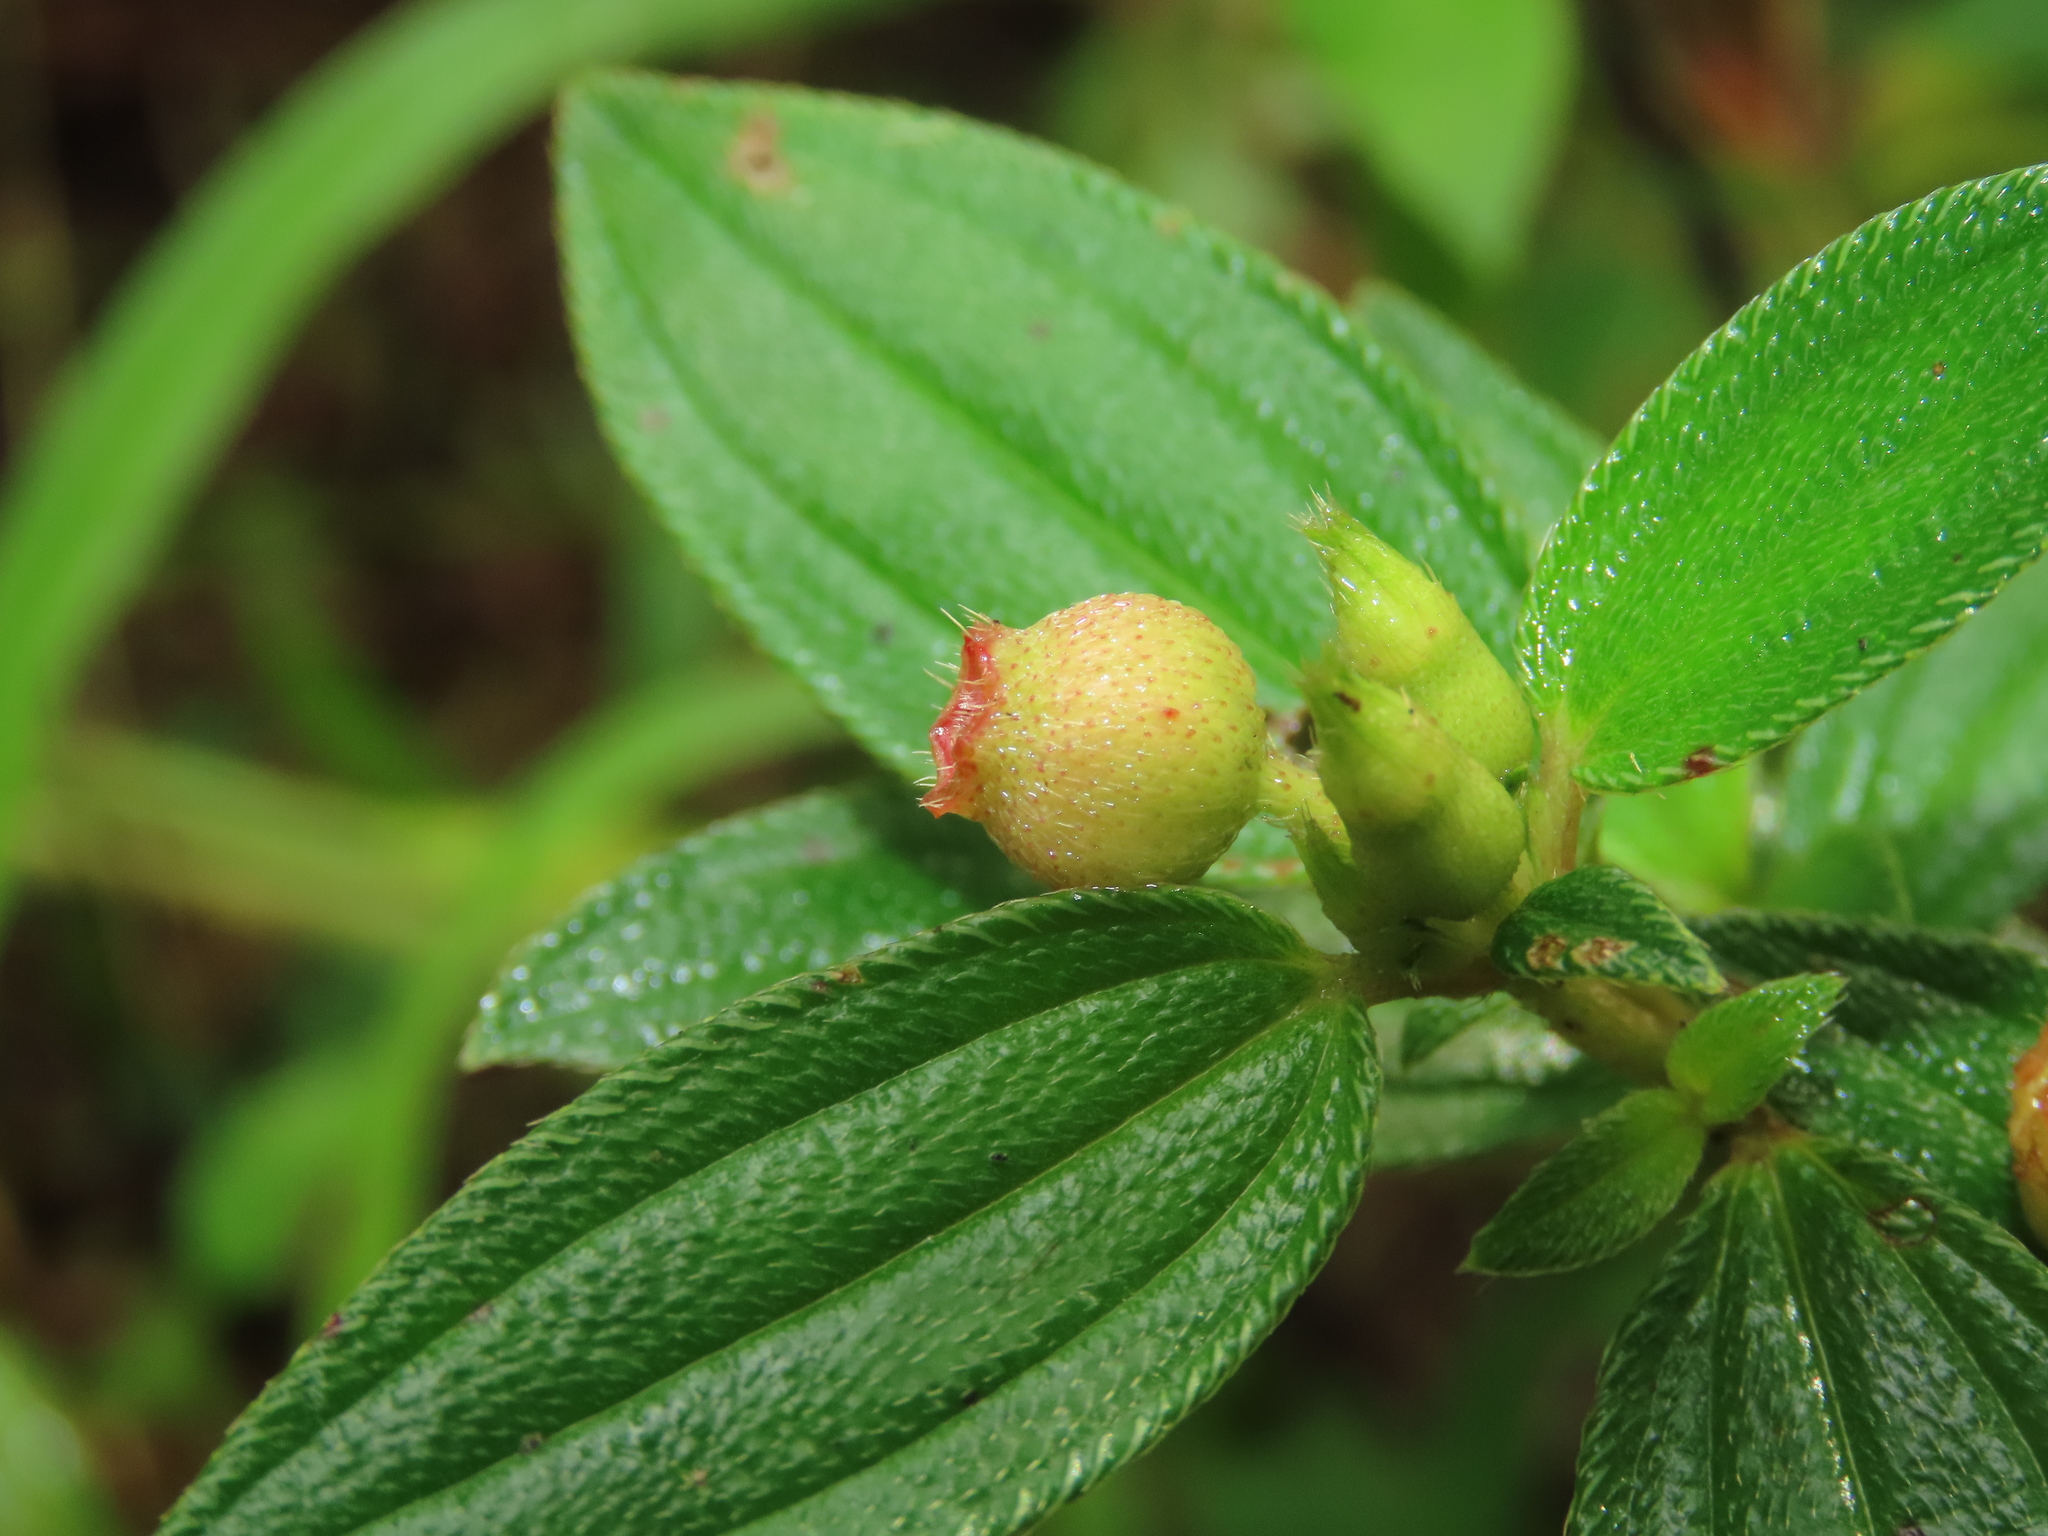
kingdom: Plantae
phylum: Tracheophyta
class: Magnoliopsida
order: Myrtales
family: Melastomataceae
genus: Melastoma
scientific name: Melastoma scaberrima
